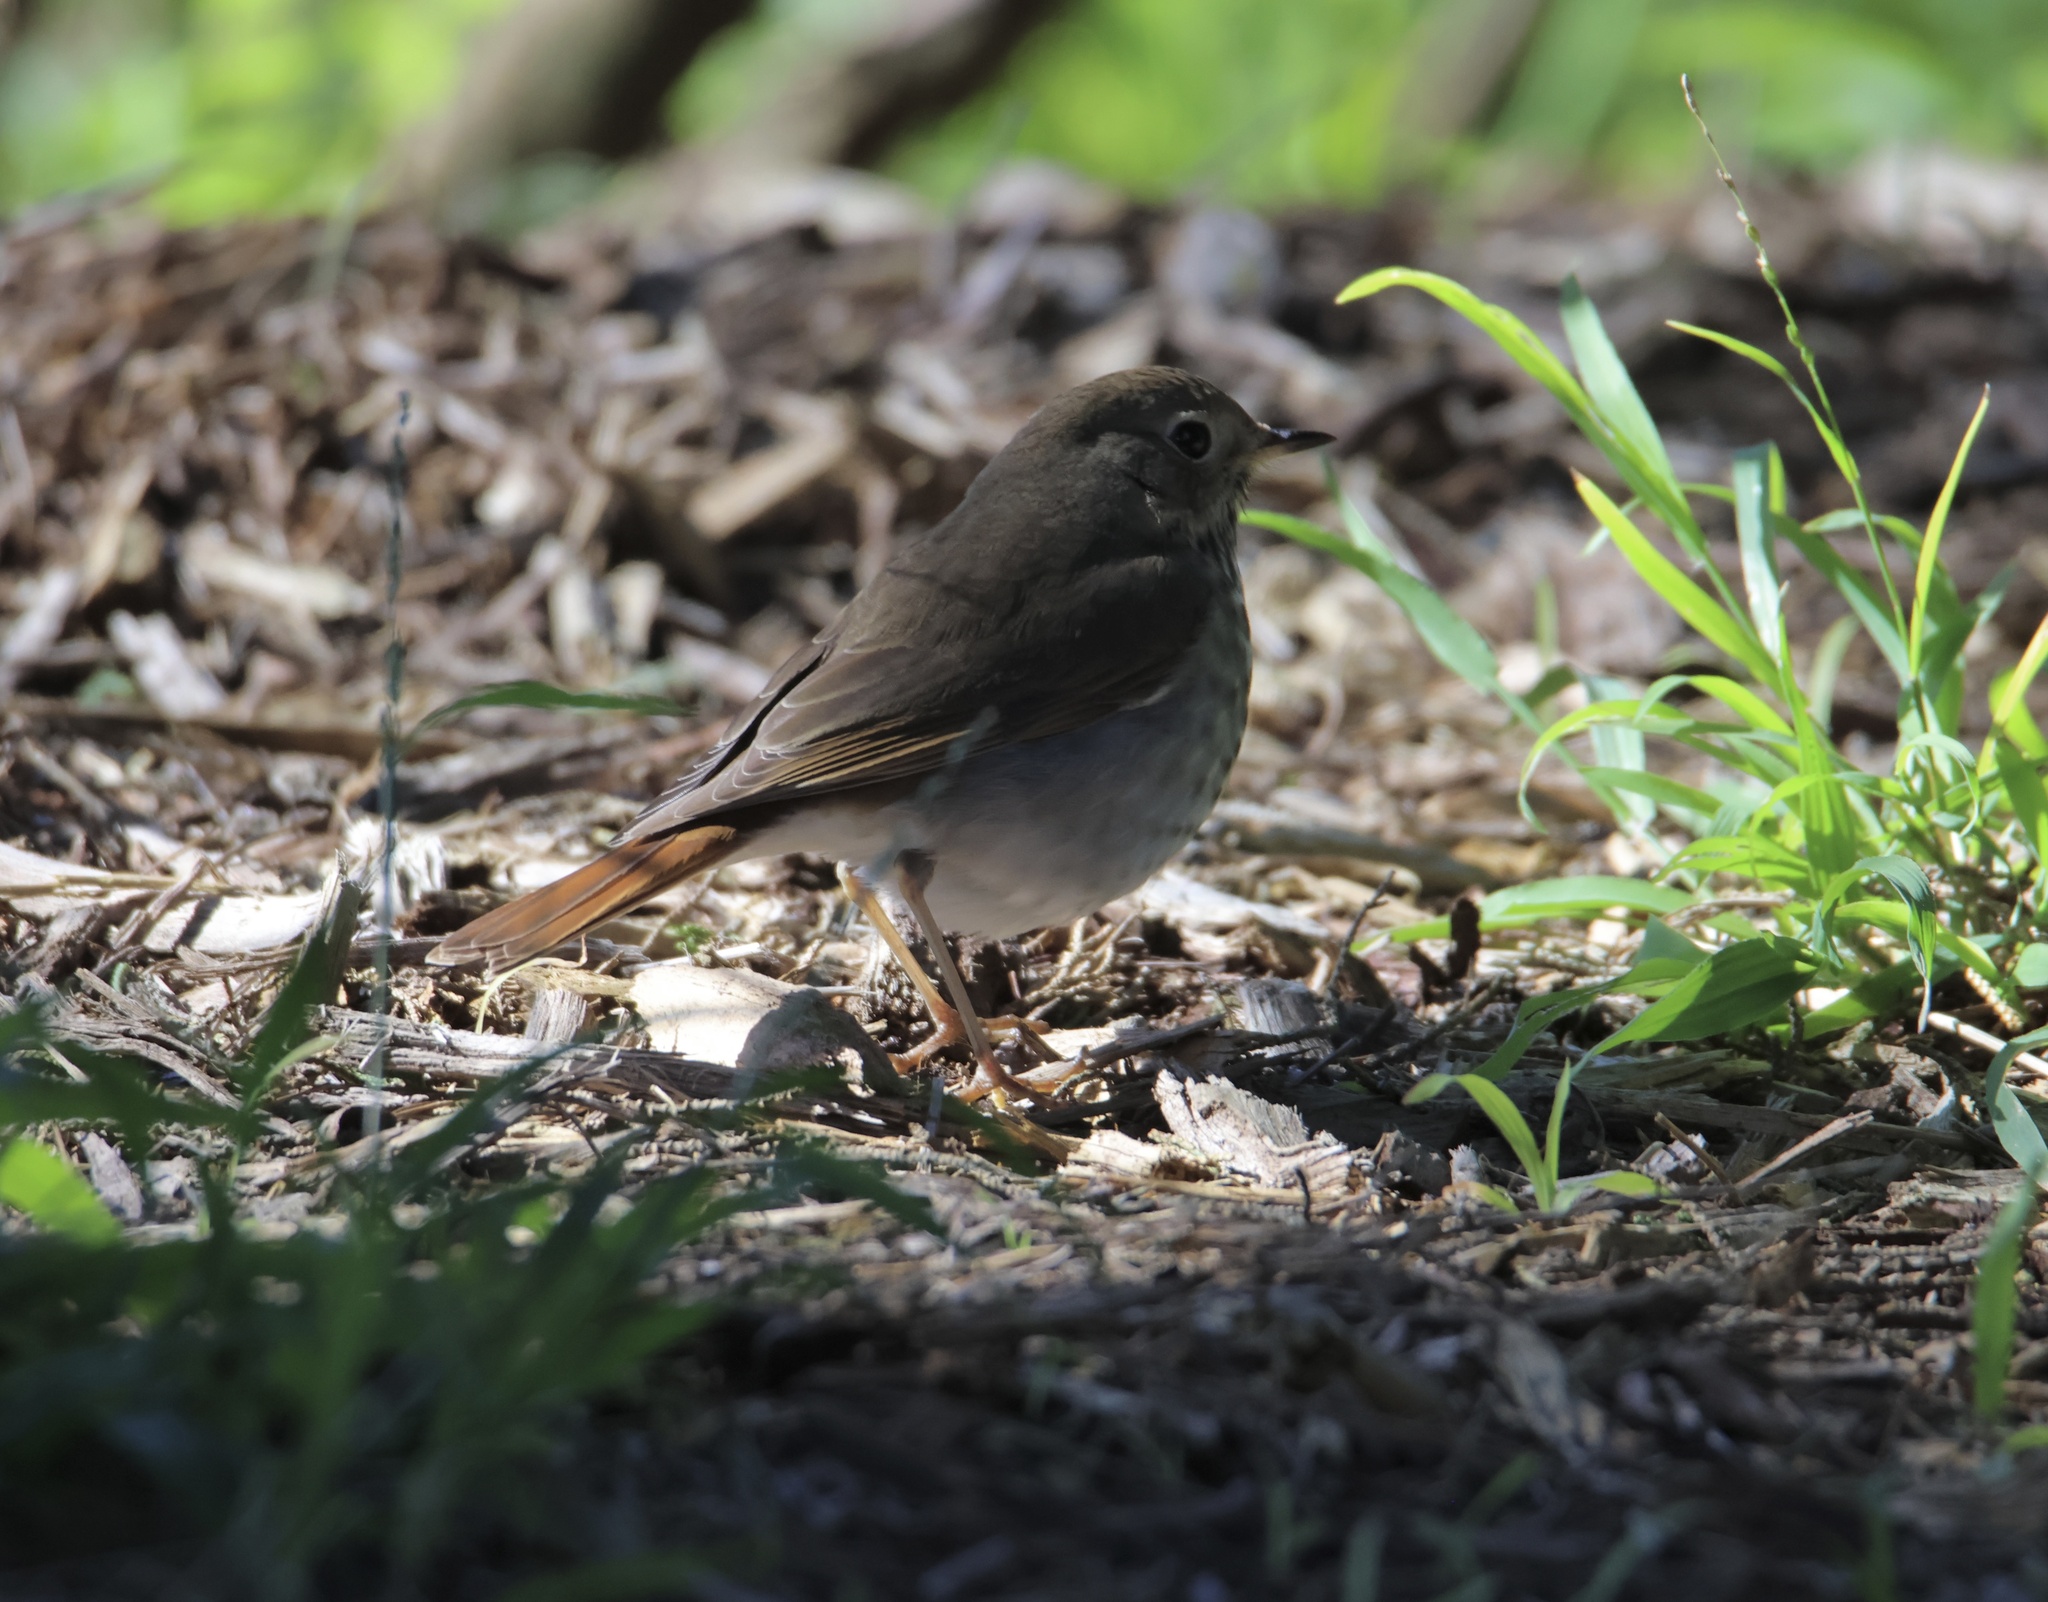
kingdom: Animalia
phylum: Chordata
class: Aves
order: Passeriformes
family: Turdidae
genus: Catharus
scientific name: Catharus guttatus
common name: Hermit thrush
